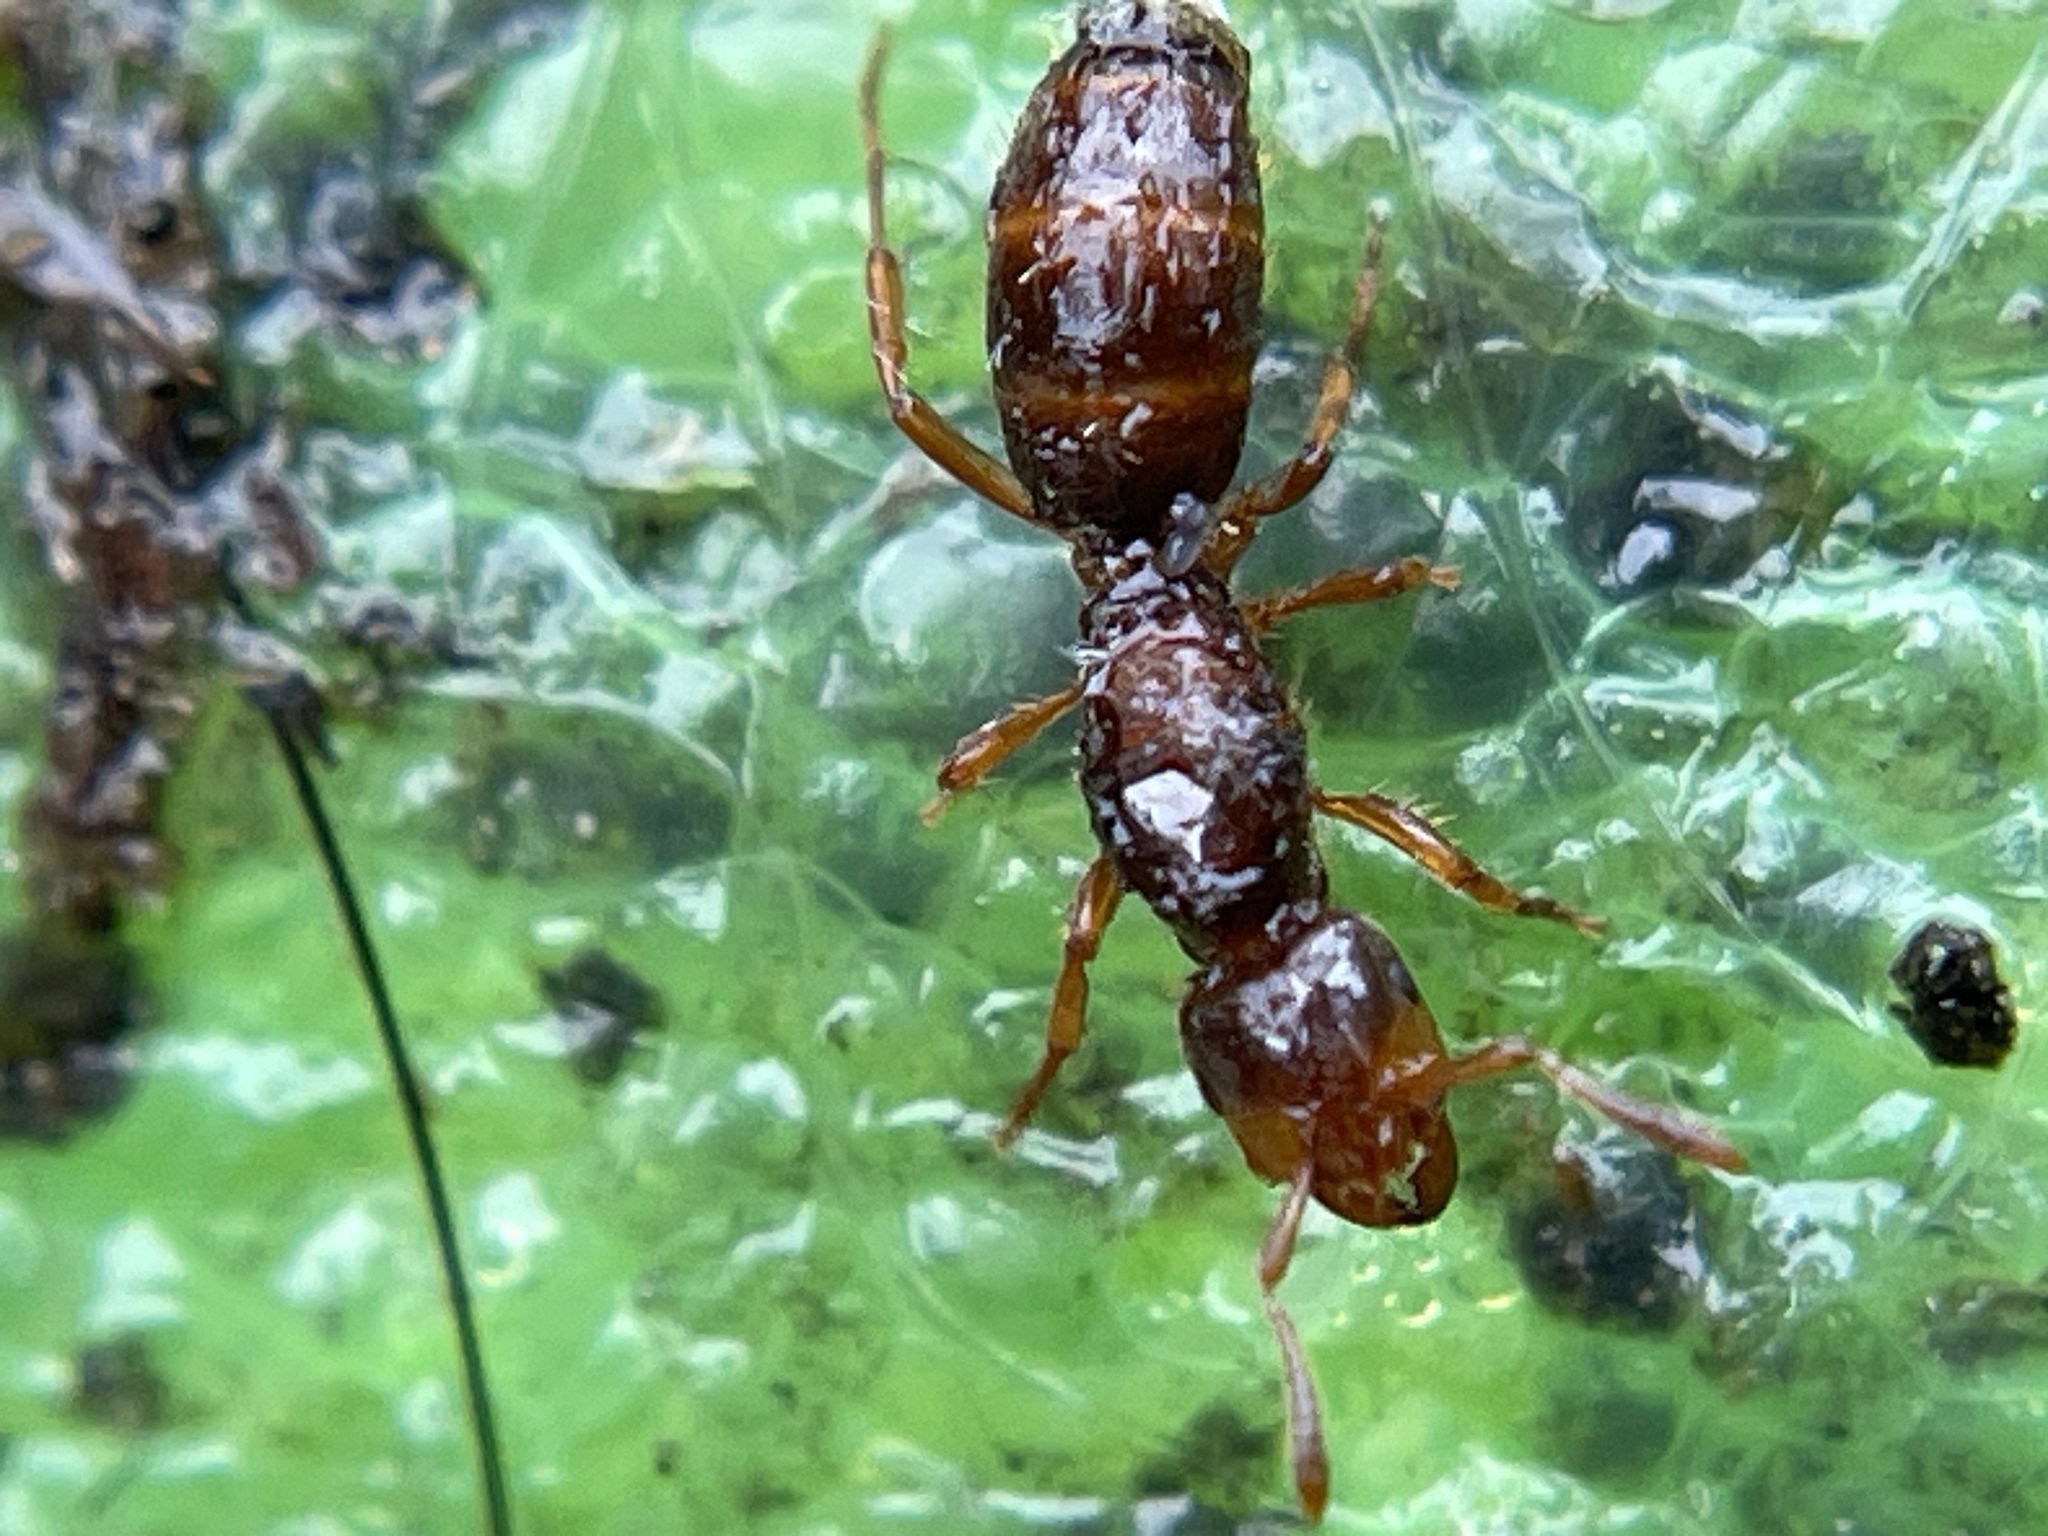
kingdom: Animalia
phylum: Arthropoda
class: Insecta
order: Hymenoptera
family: Formicidae
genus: Lasius
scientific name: Lasius claviger
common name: Common citronella ant
